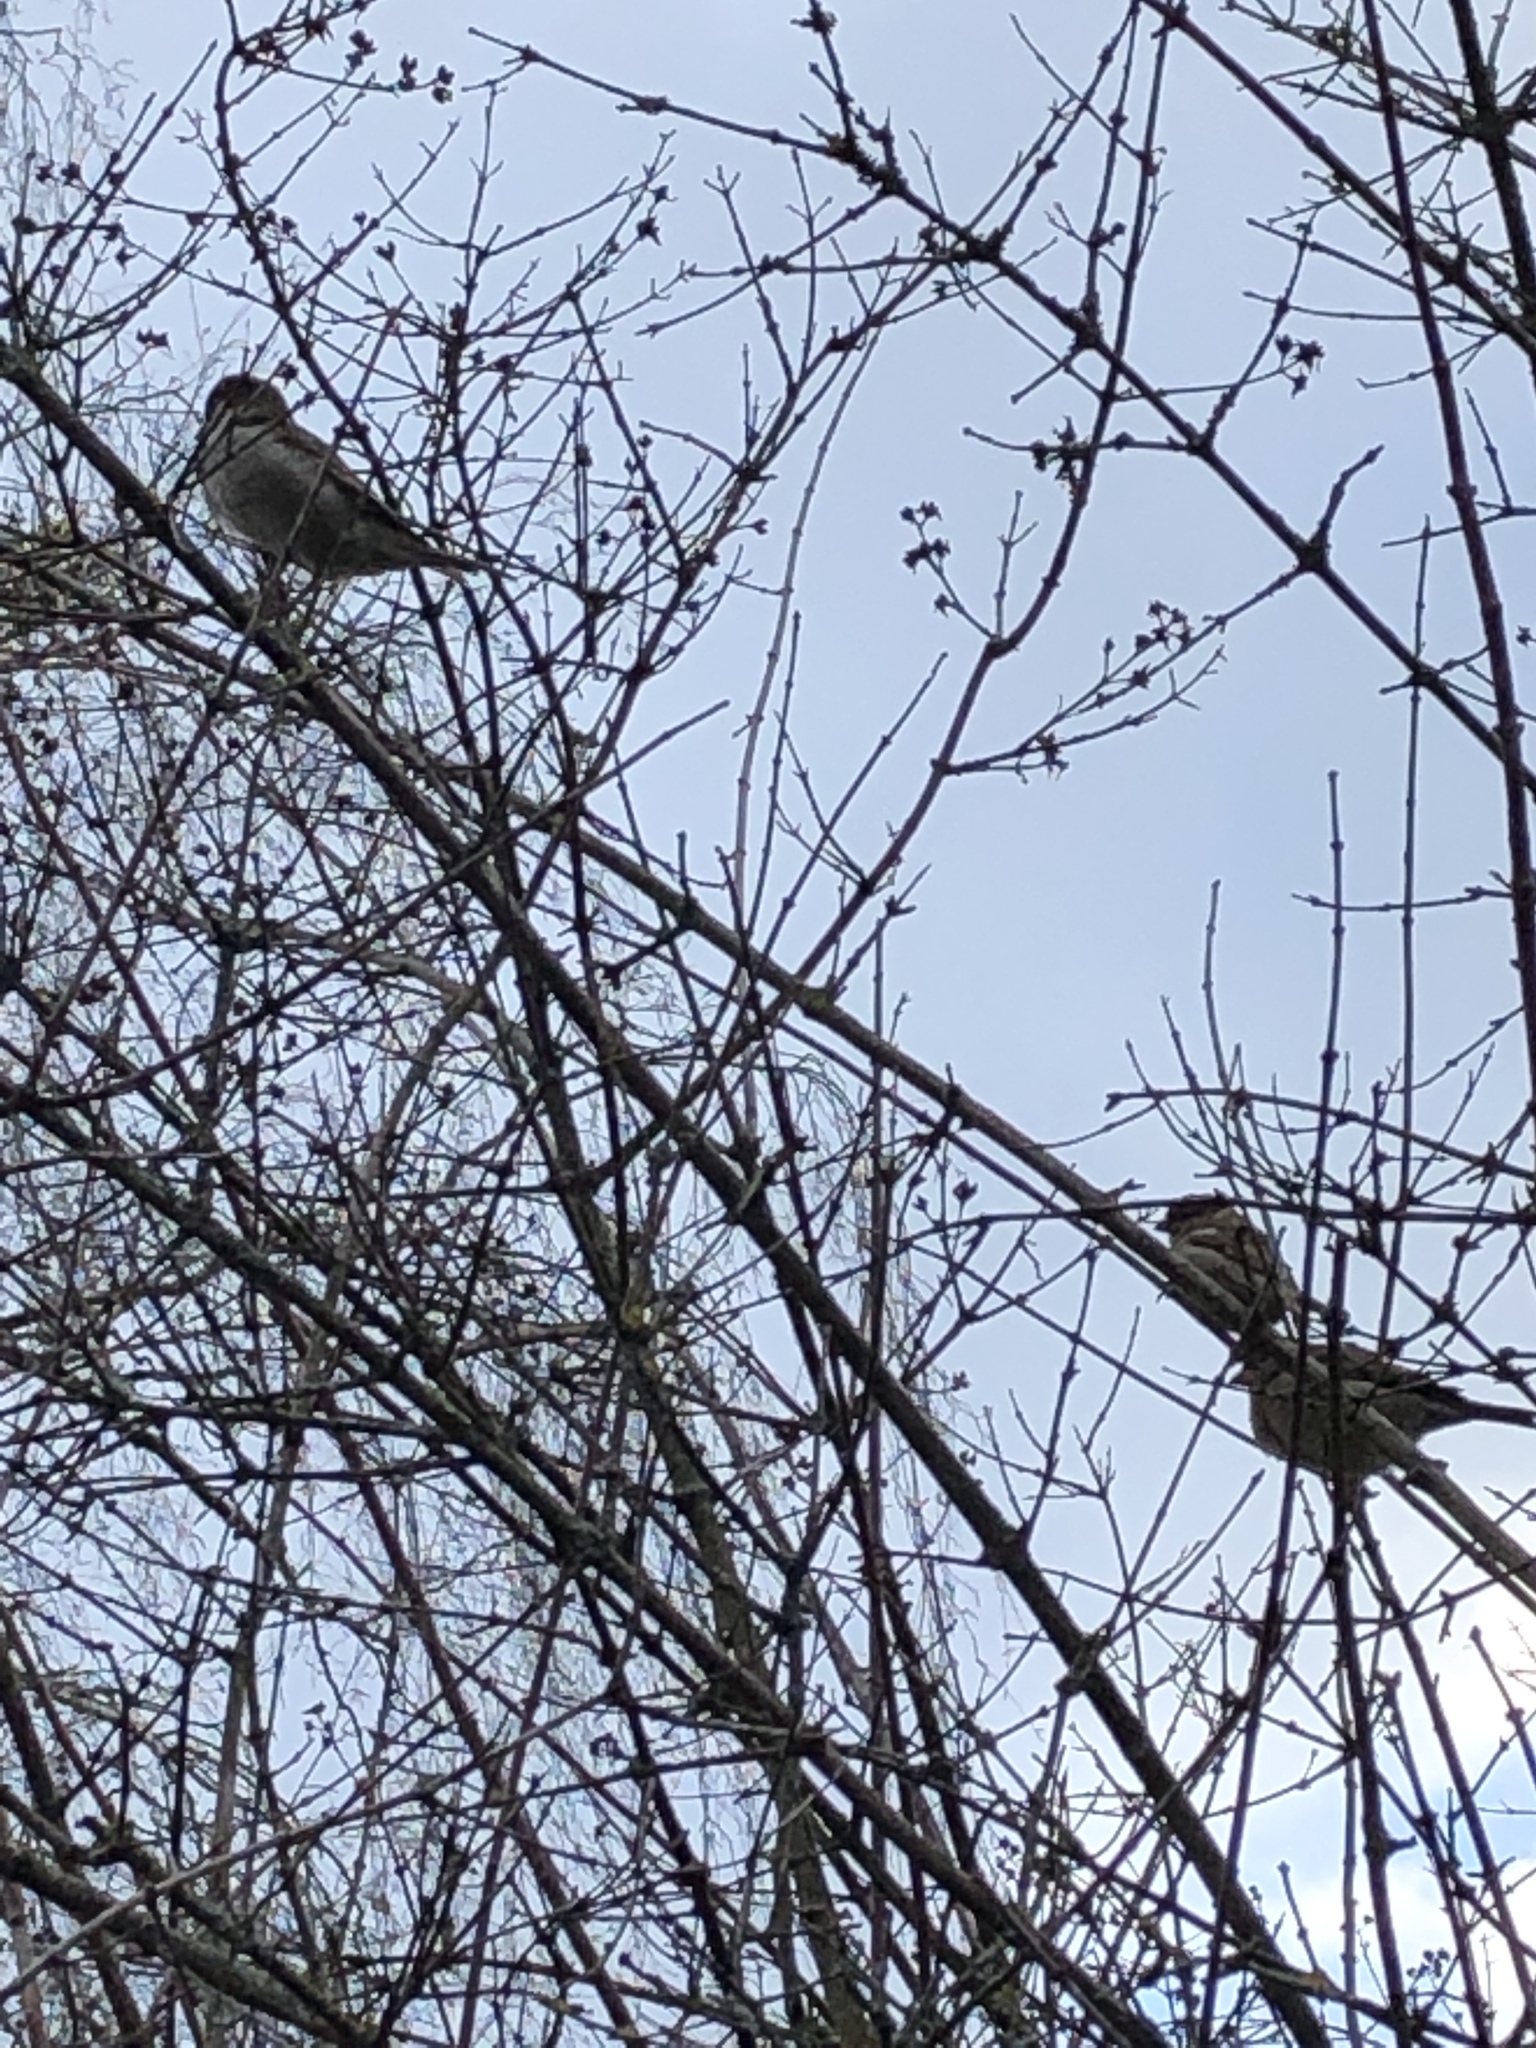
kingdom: Animalia
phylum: Chordata
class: Aves
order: Passeriformes
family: Passeridae
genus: Passer
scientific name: Passer domesticus
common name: House sparrow
